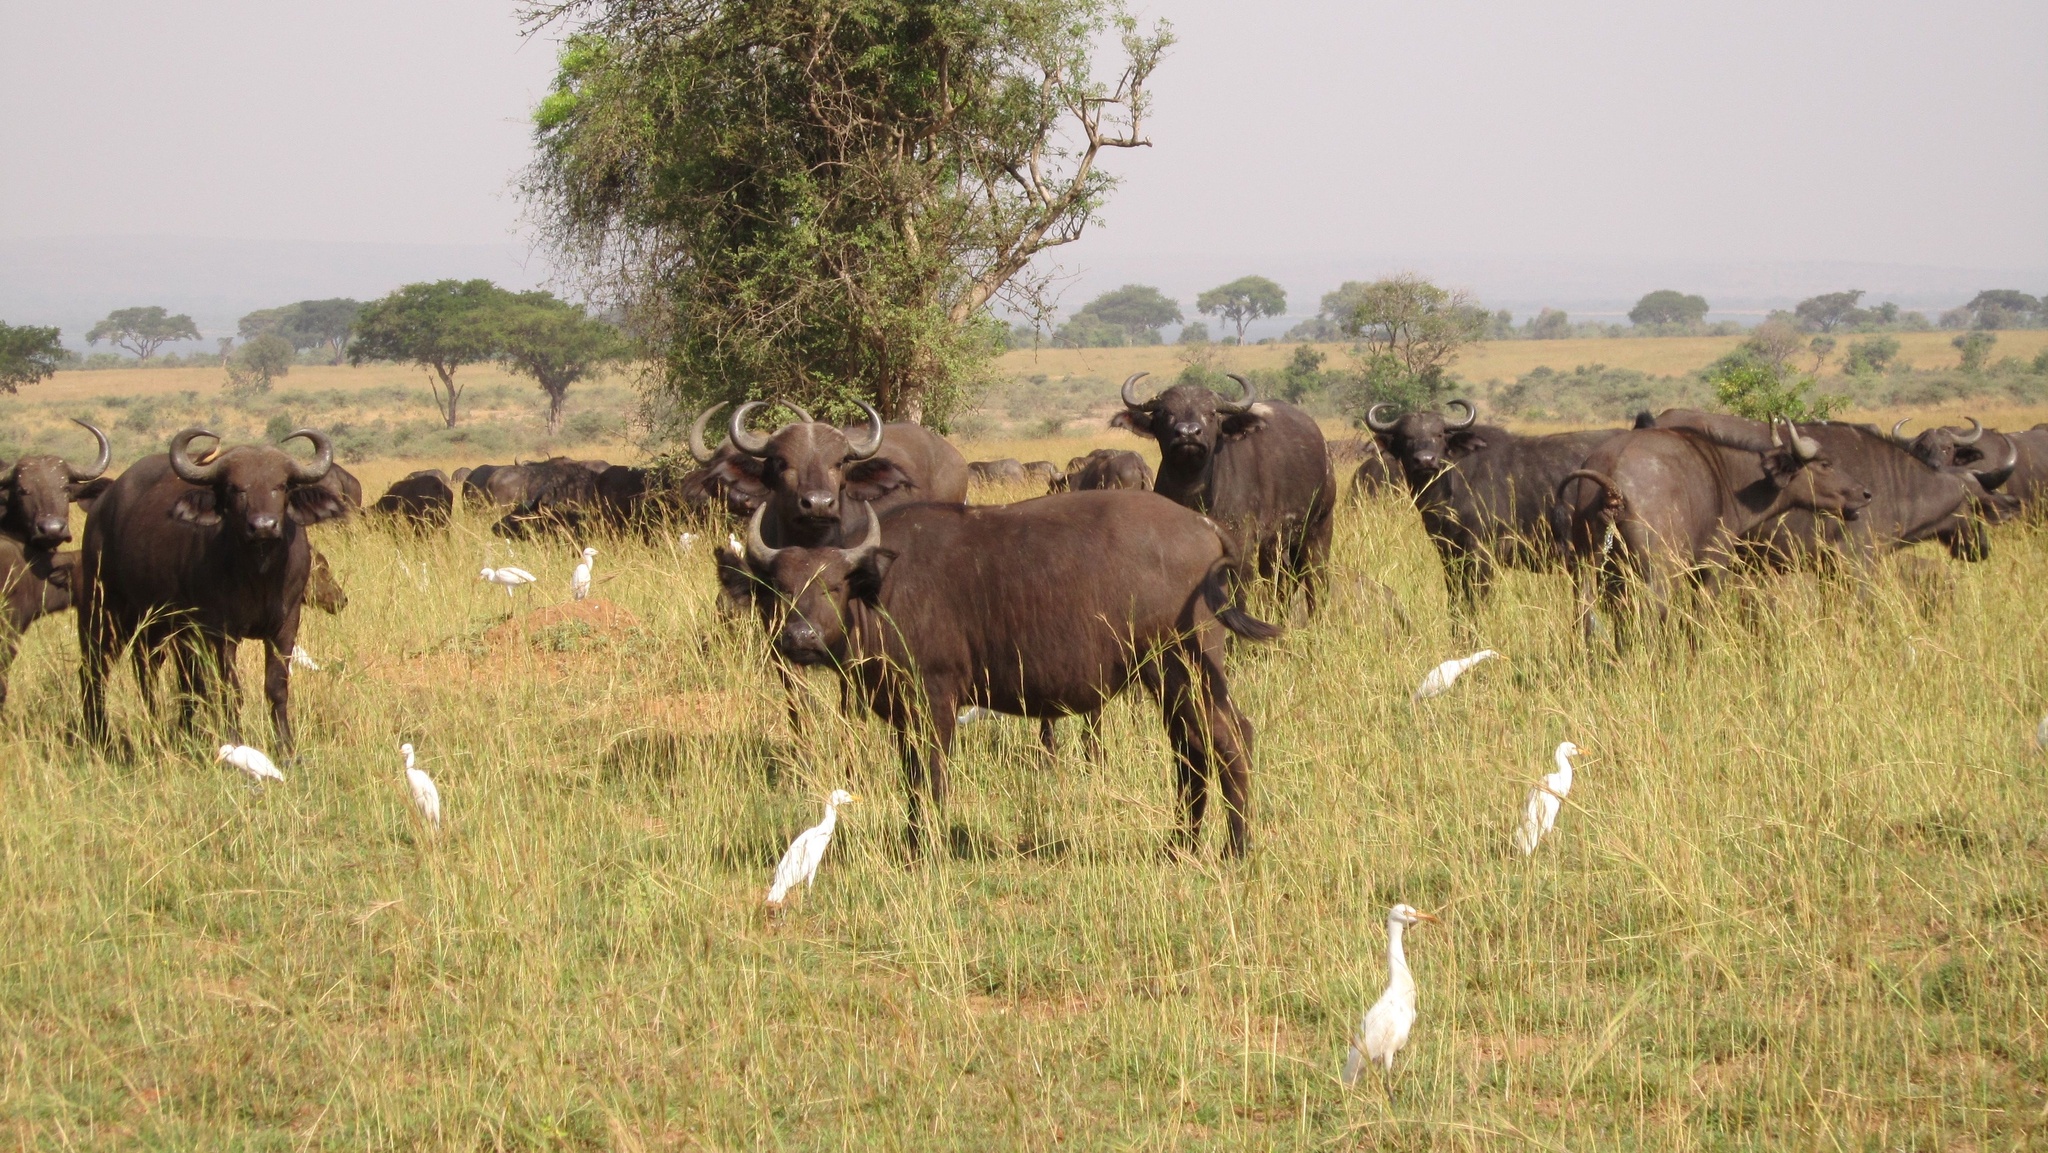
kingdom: Animalia
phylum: Chordata
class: Aves
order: Pelecaniformes
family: Ardeidae
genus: Bubulcus
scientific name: Bubulcus ibis
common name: Cattle egret
